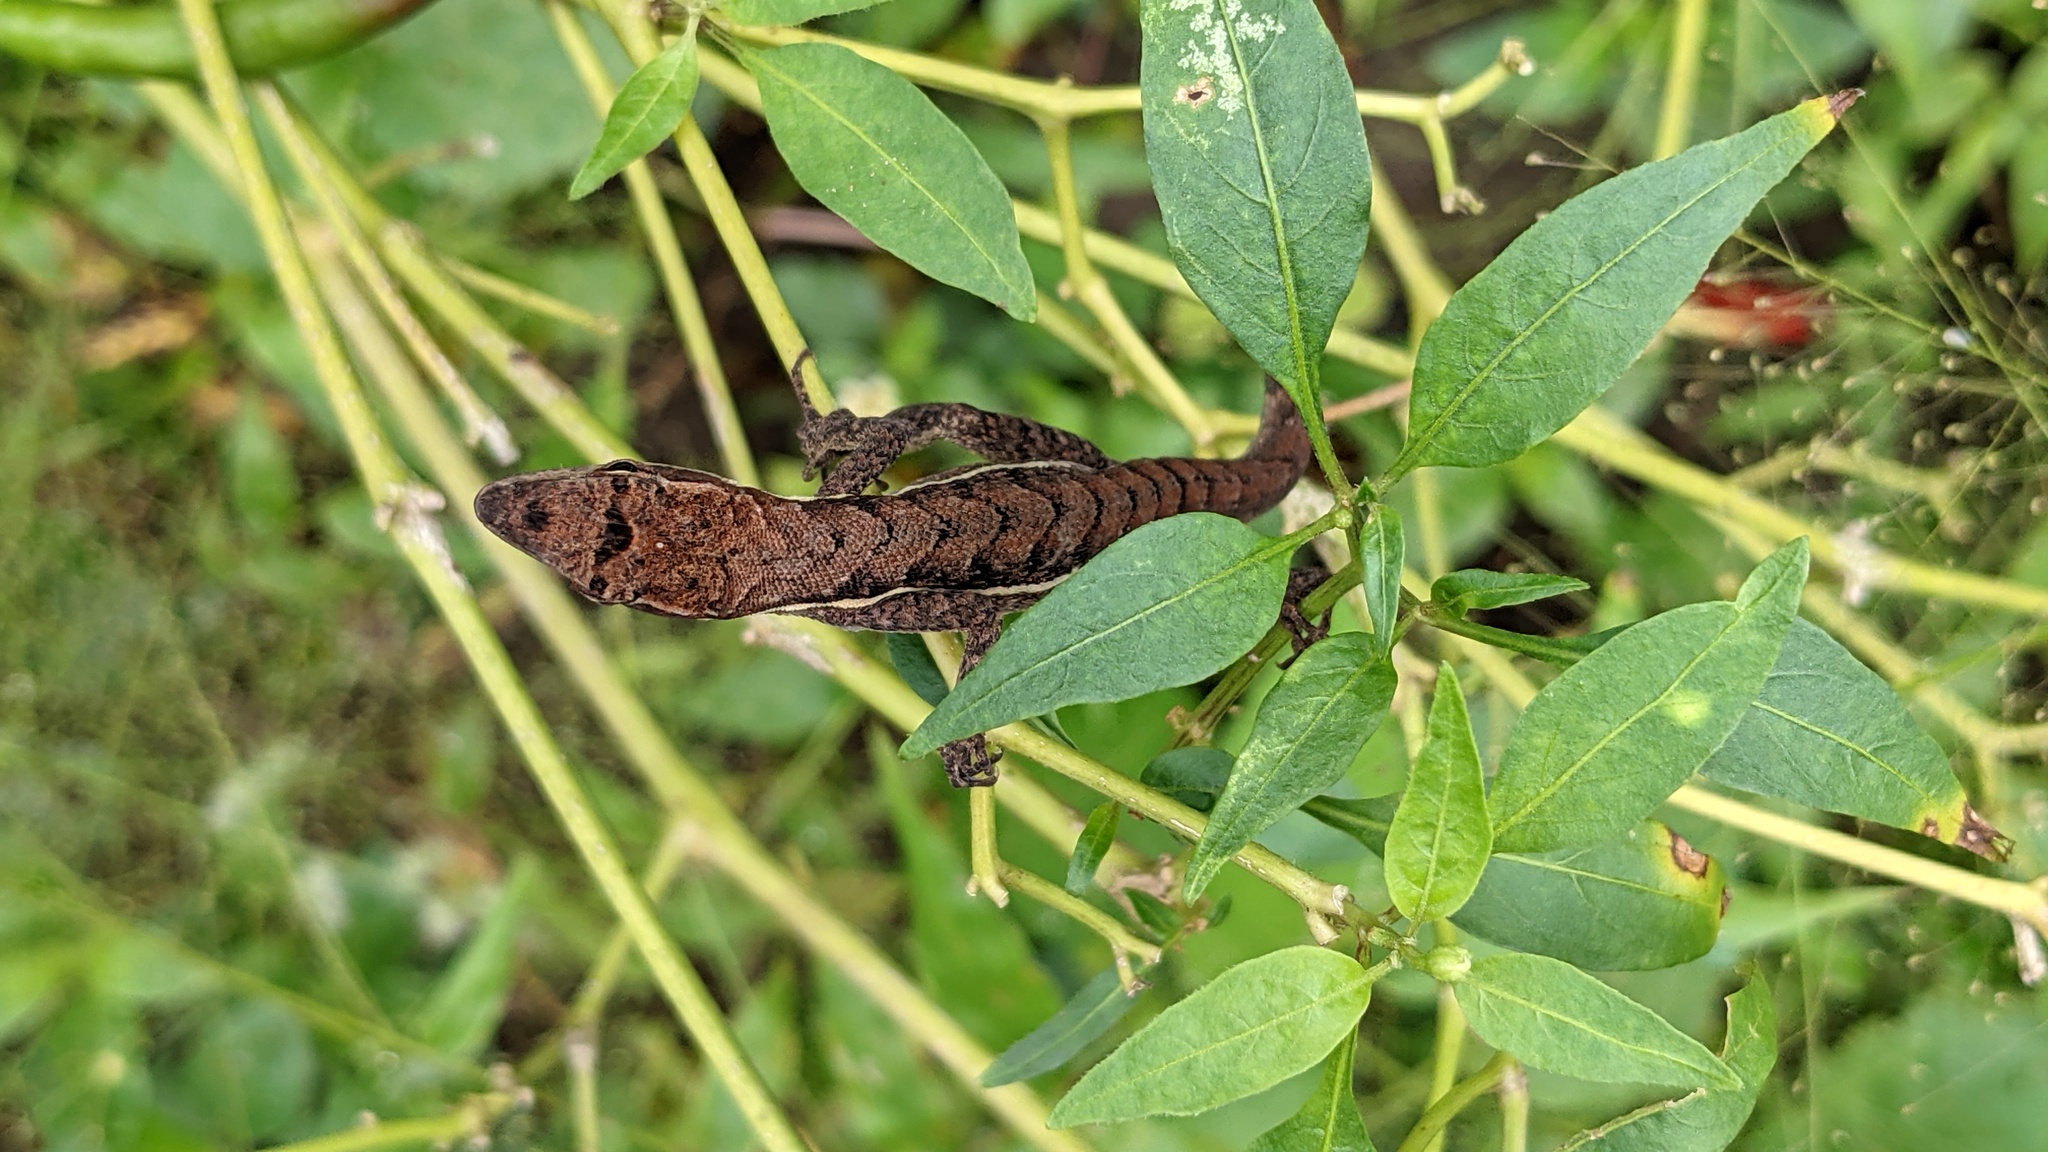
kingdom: Animalia
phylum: Chordata
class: Squamata
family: Dactyloidae
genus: Anolis
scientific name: Anolis auratus
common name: Grass anole
